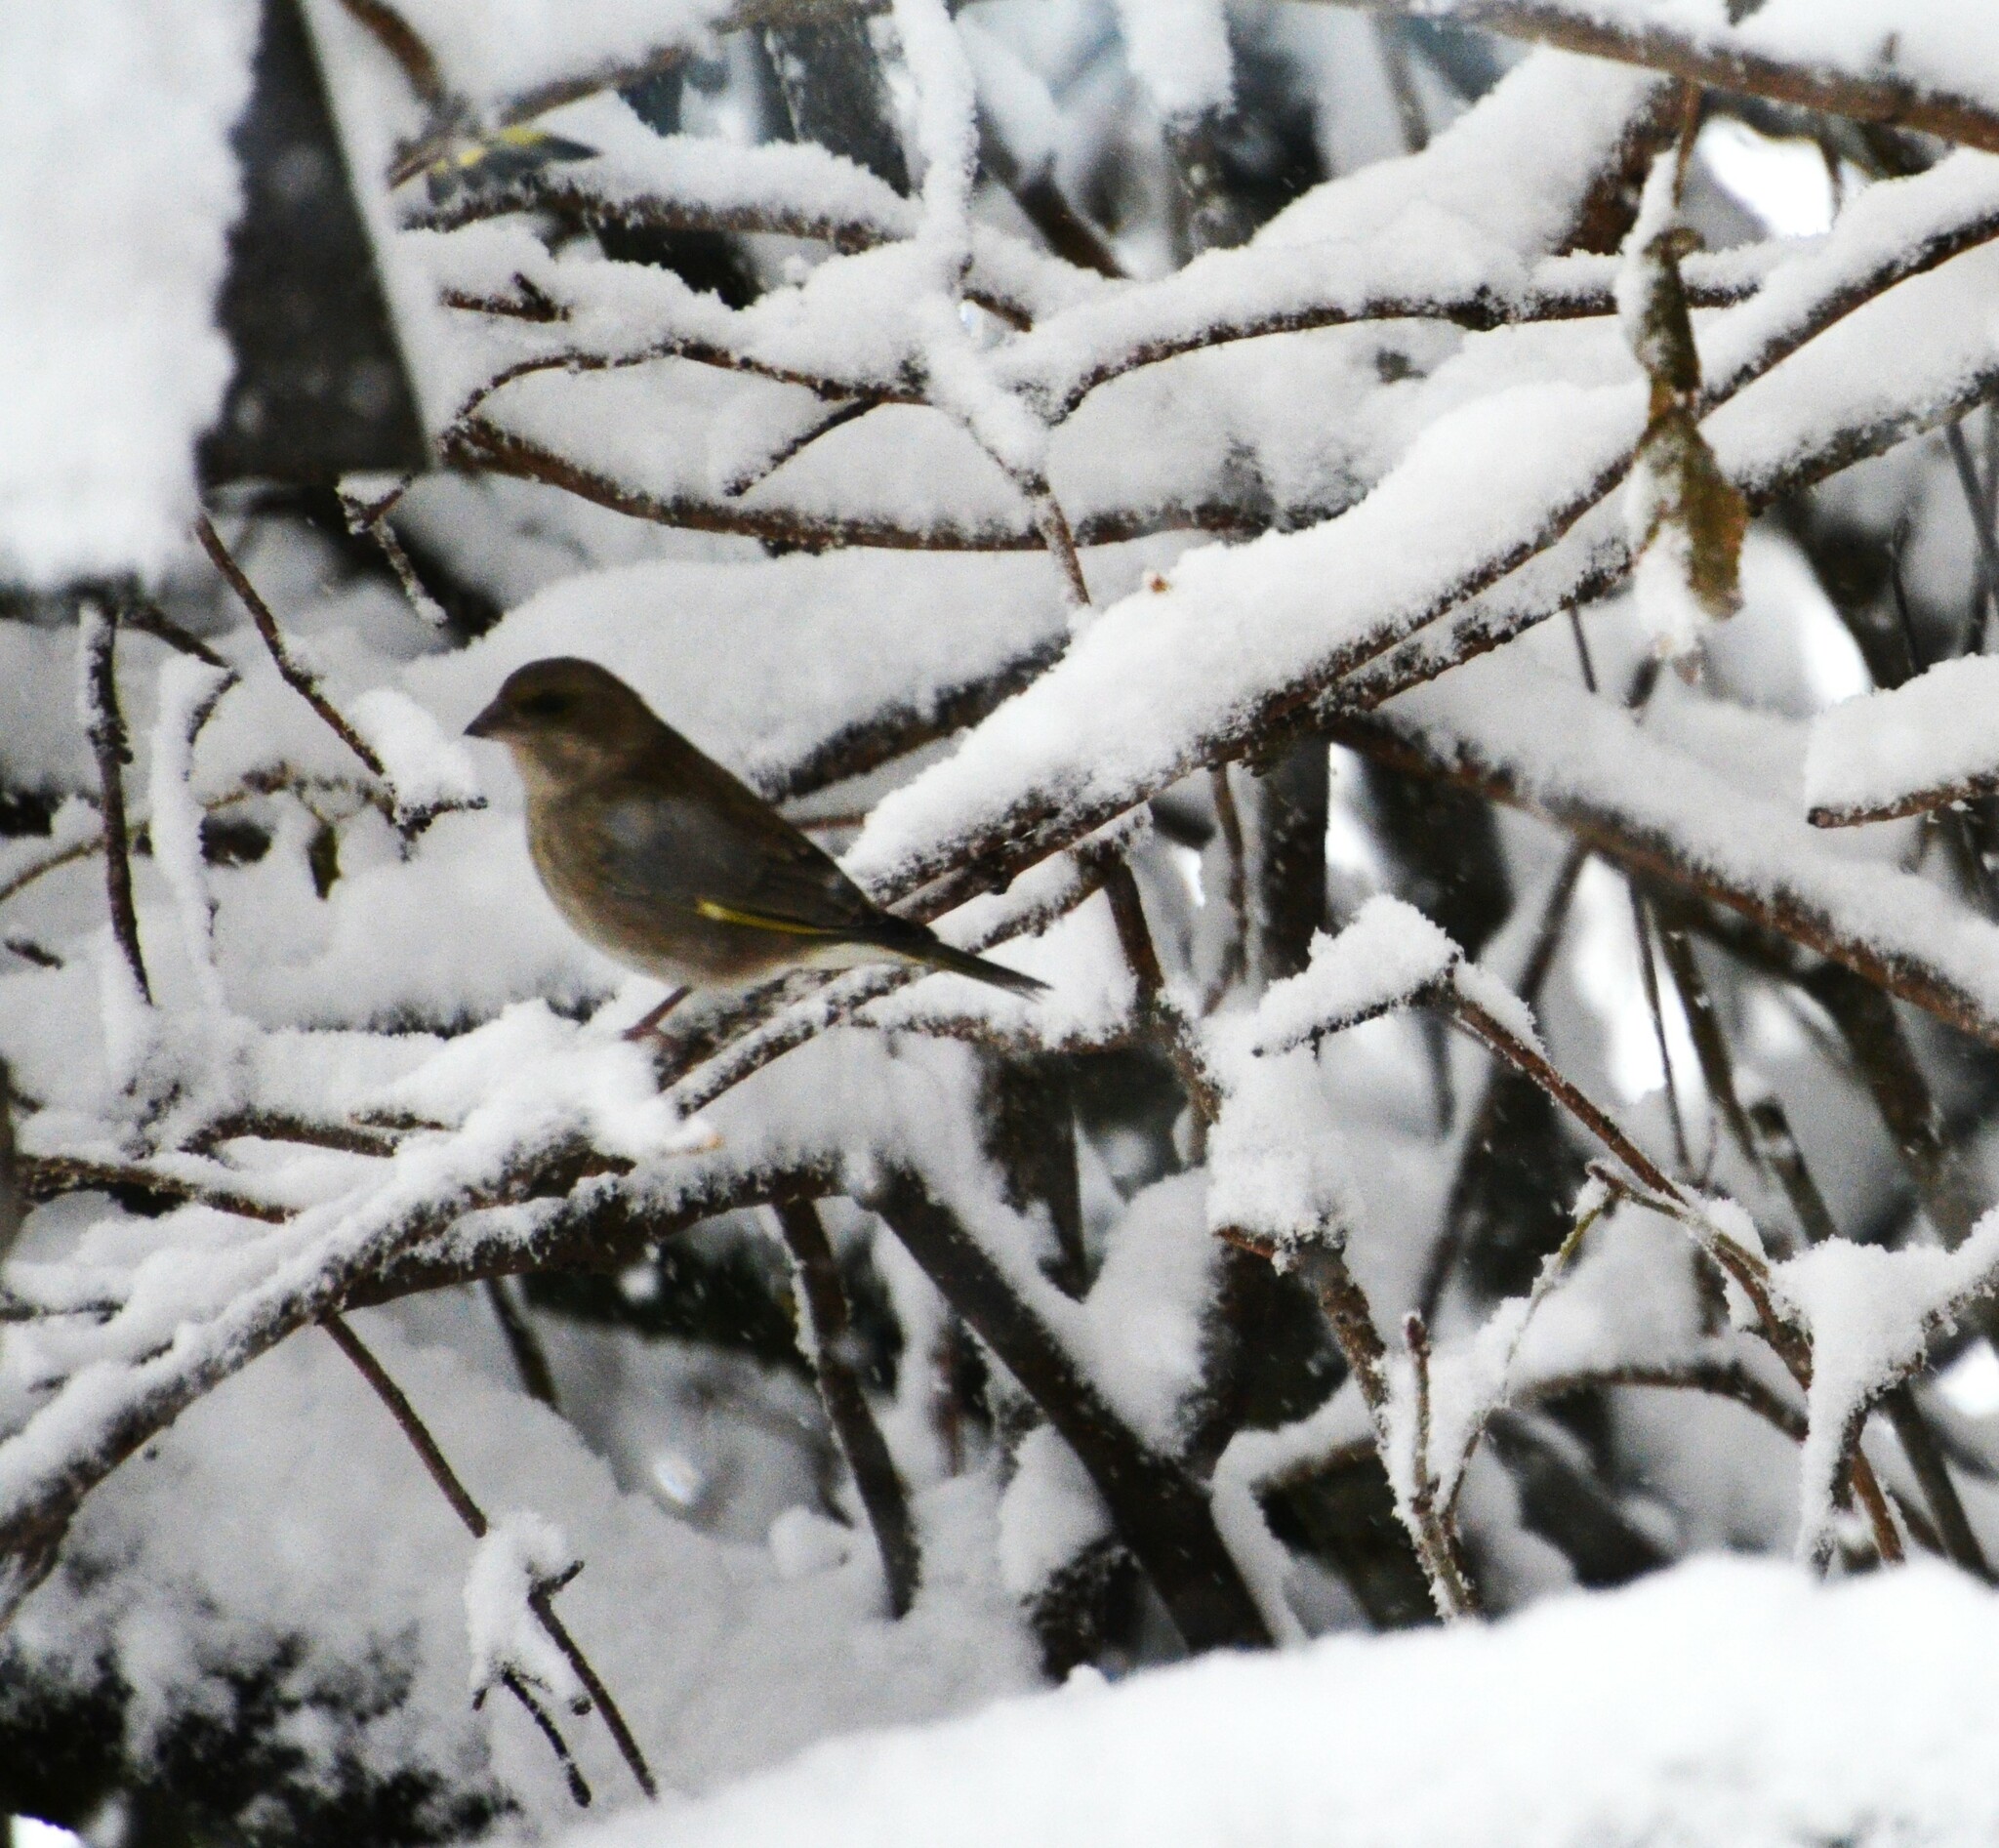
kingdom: Plantae
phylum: Tracheophyta
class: Liliopsida
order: Poales
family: Poaceae
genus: Chloris
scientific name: Chloris chloris
